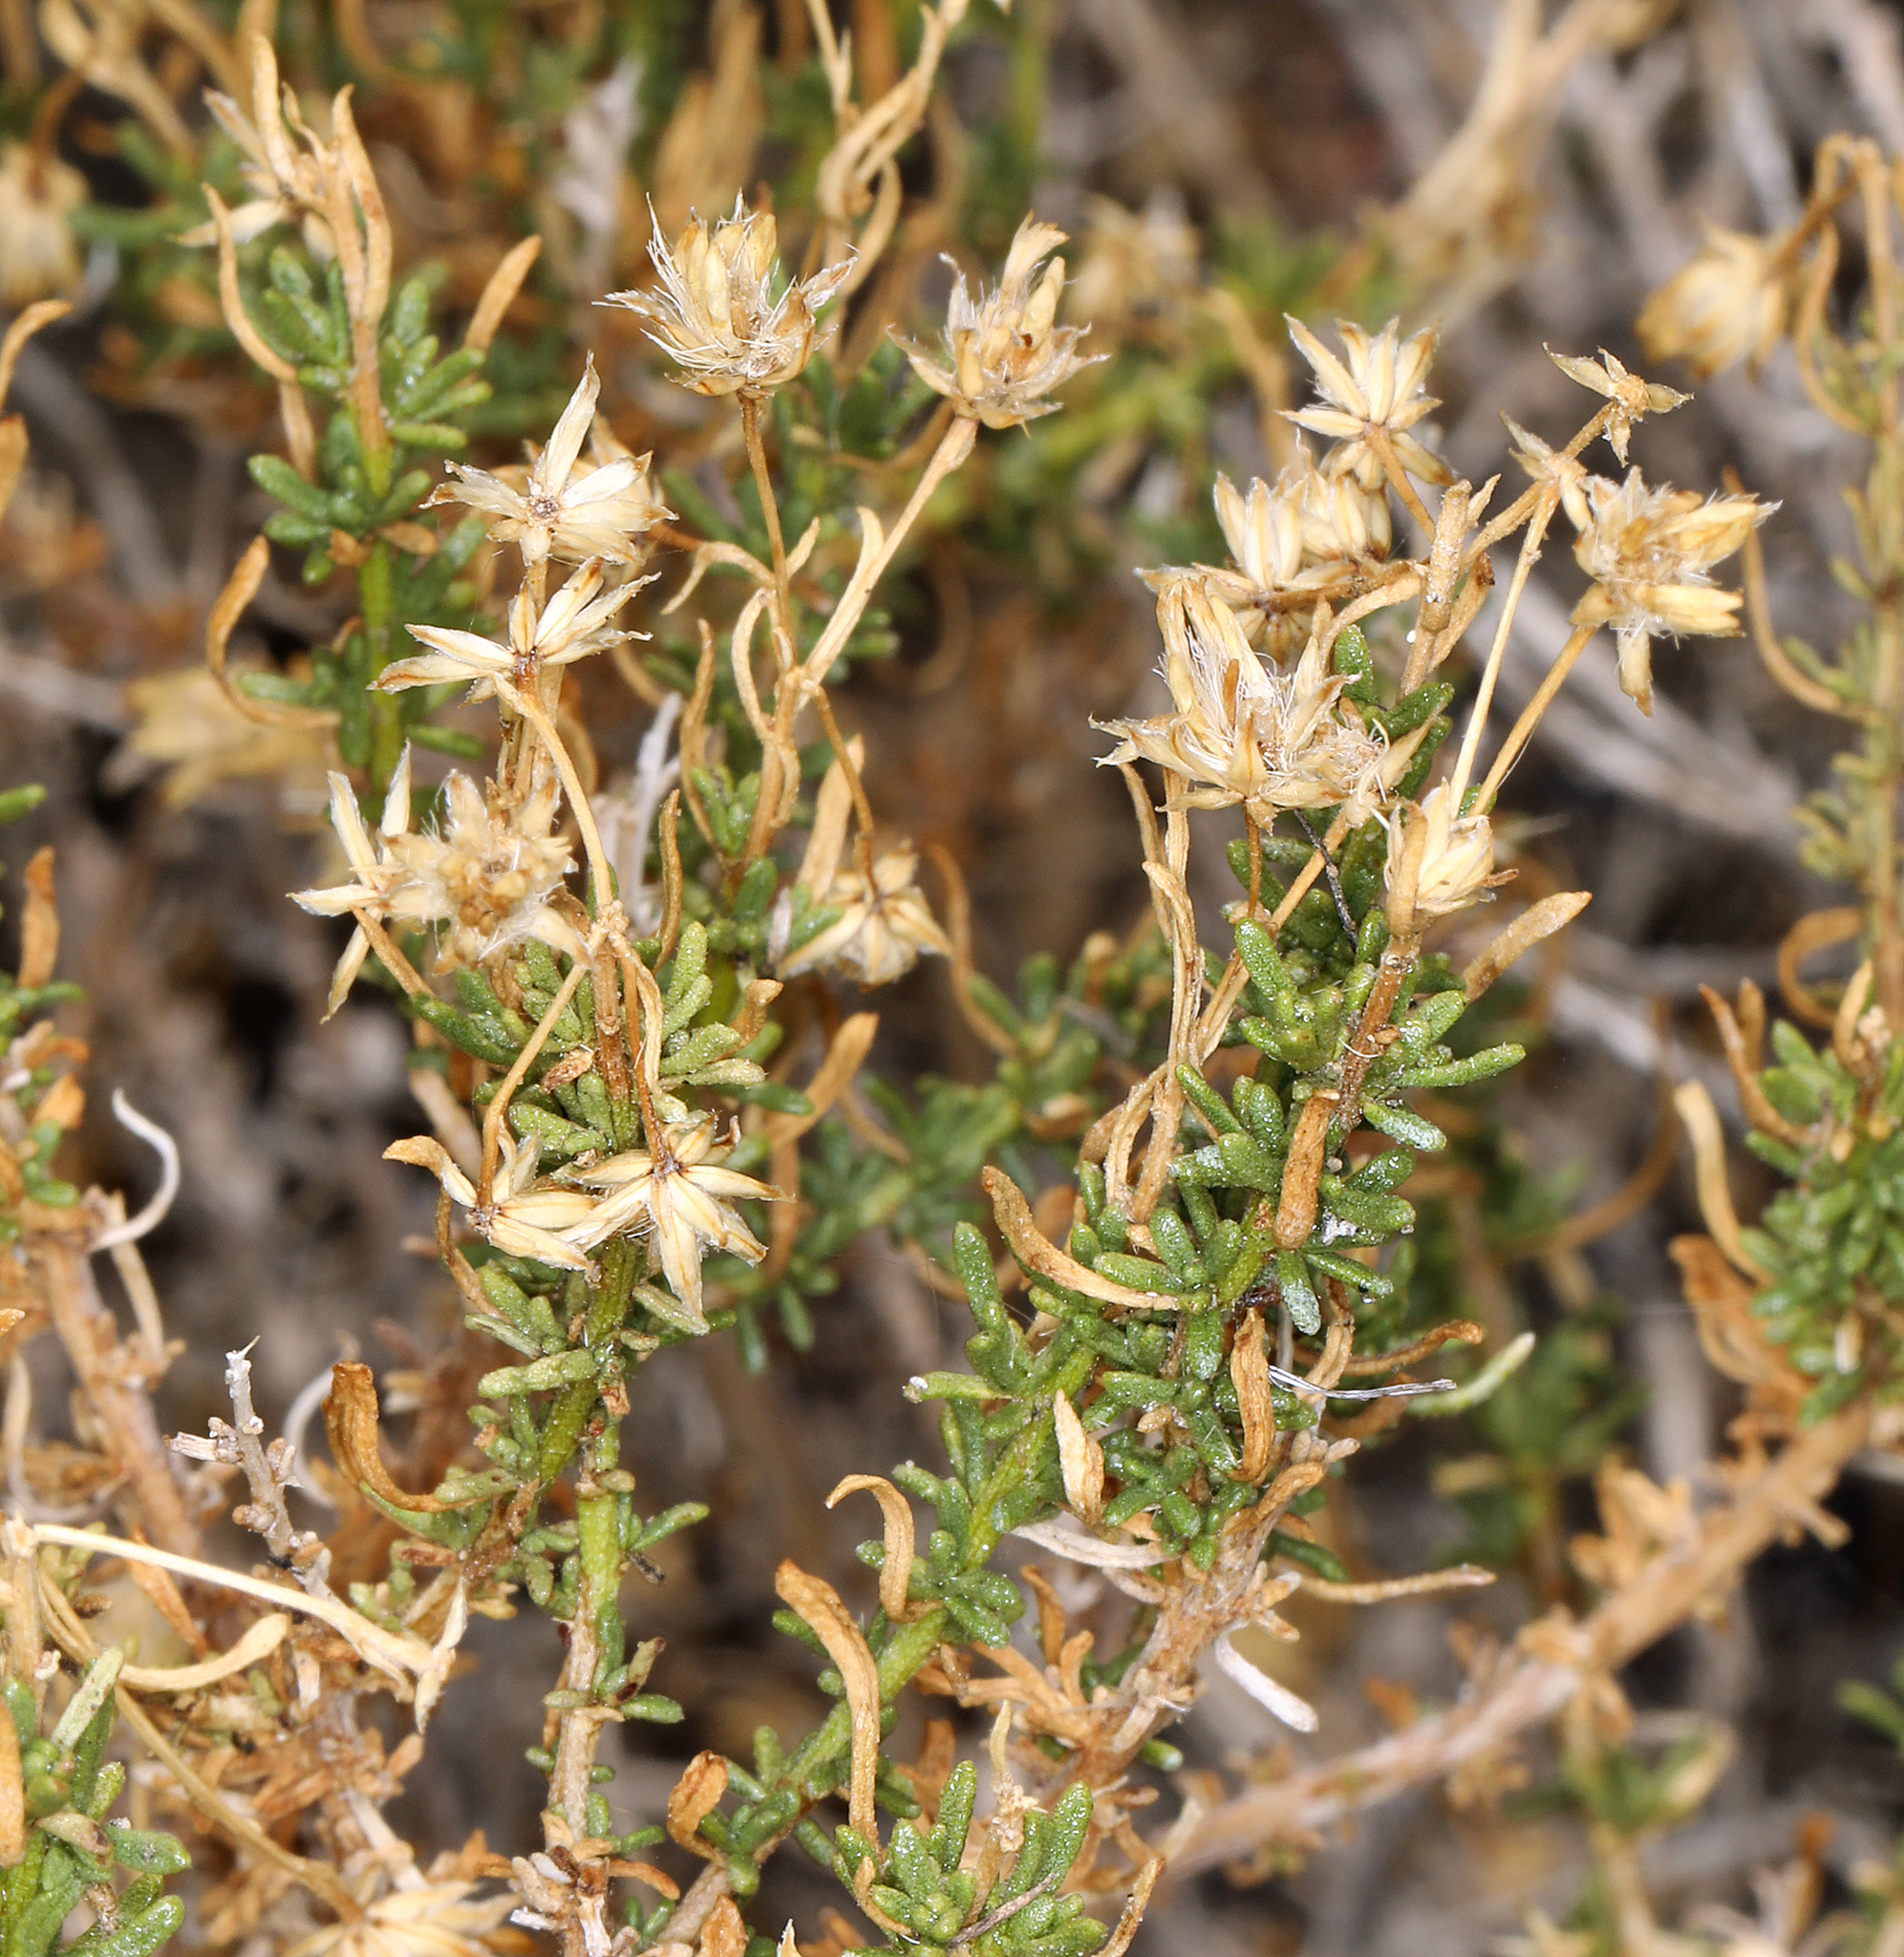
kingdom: Plantae
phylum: Tracheophyta
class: Magnoliopsida
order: Asterales
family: Asteraceae
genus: Ericameria
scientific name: Ericameria cooperi
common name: Cooper's goldenbush
